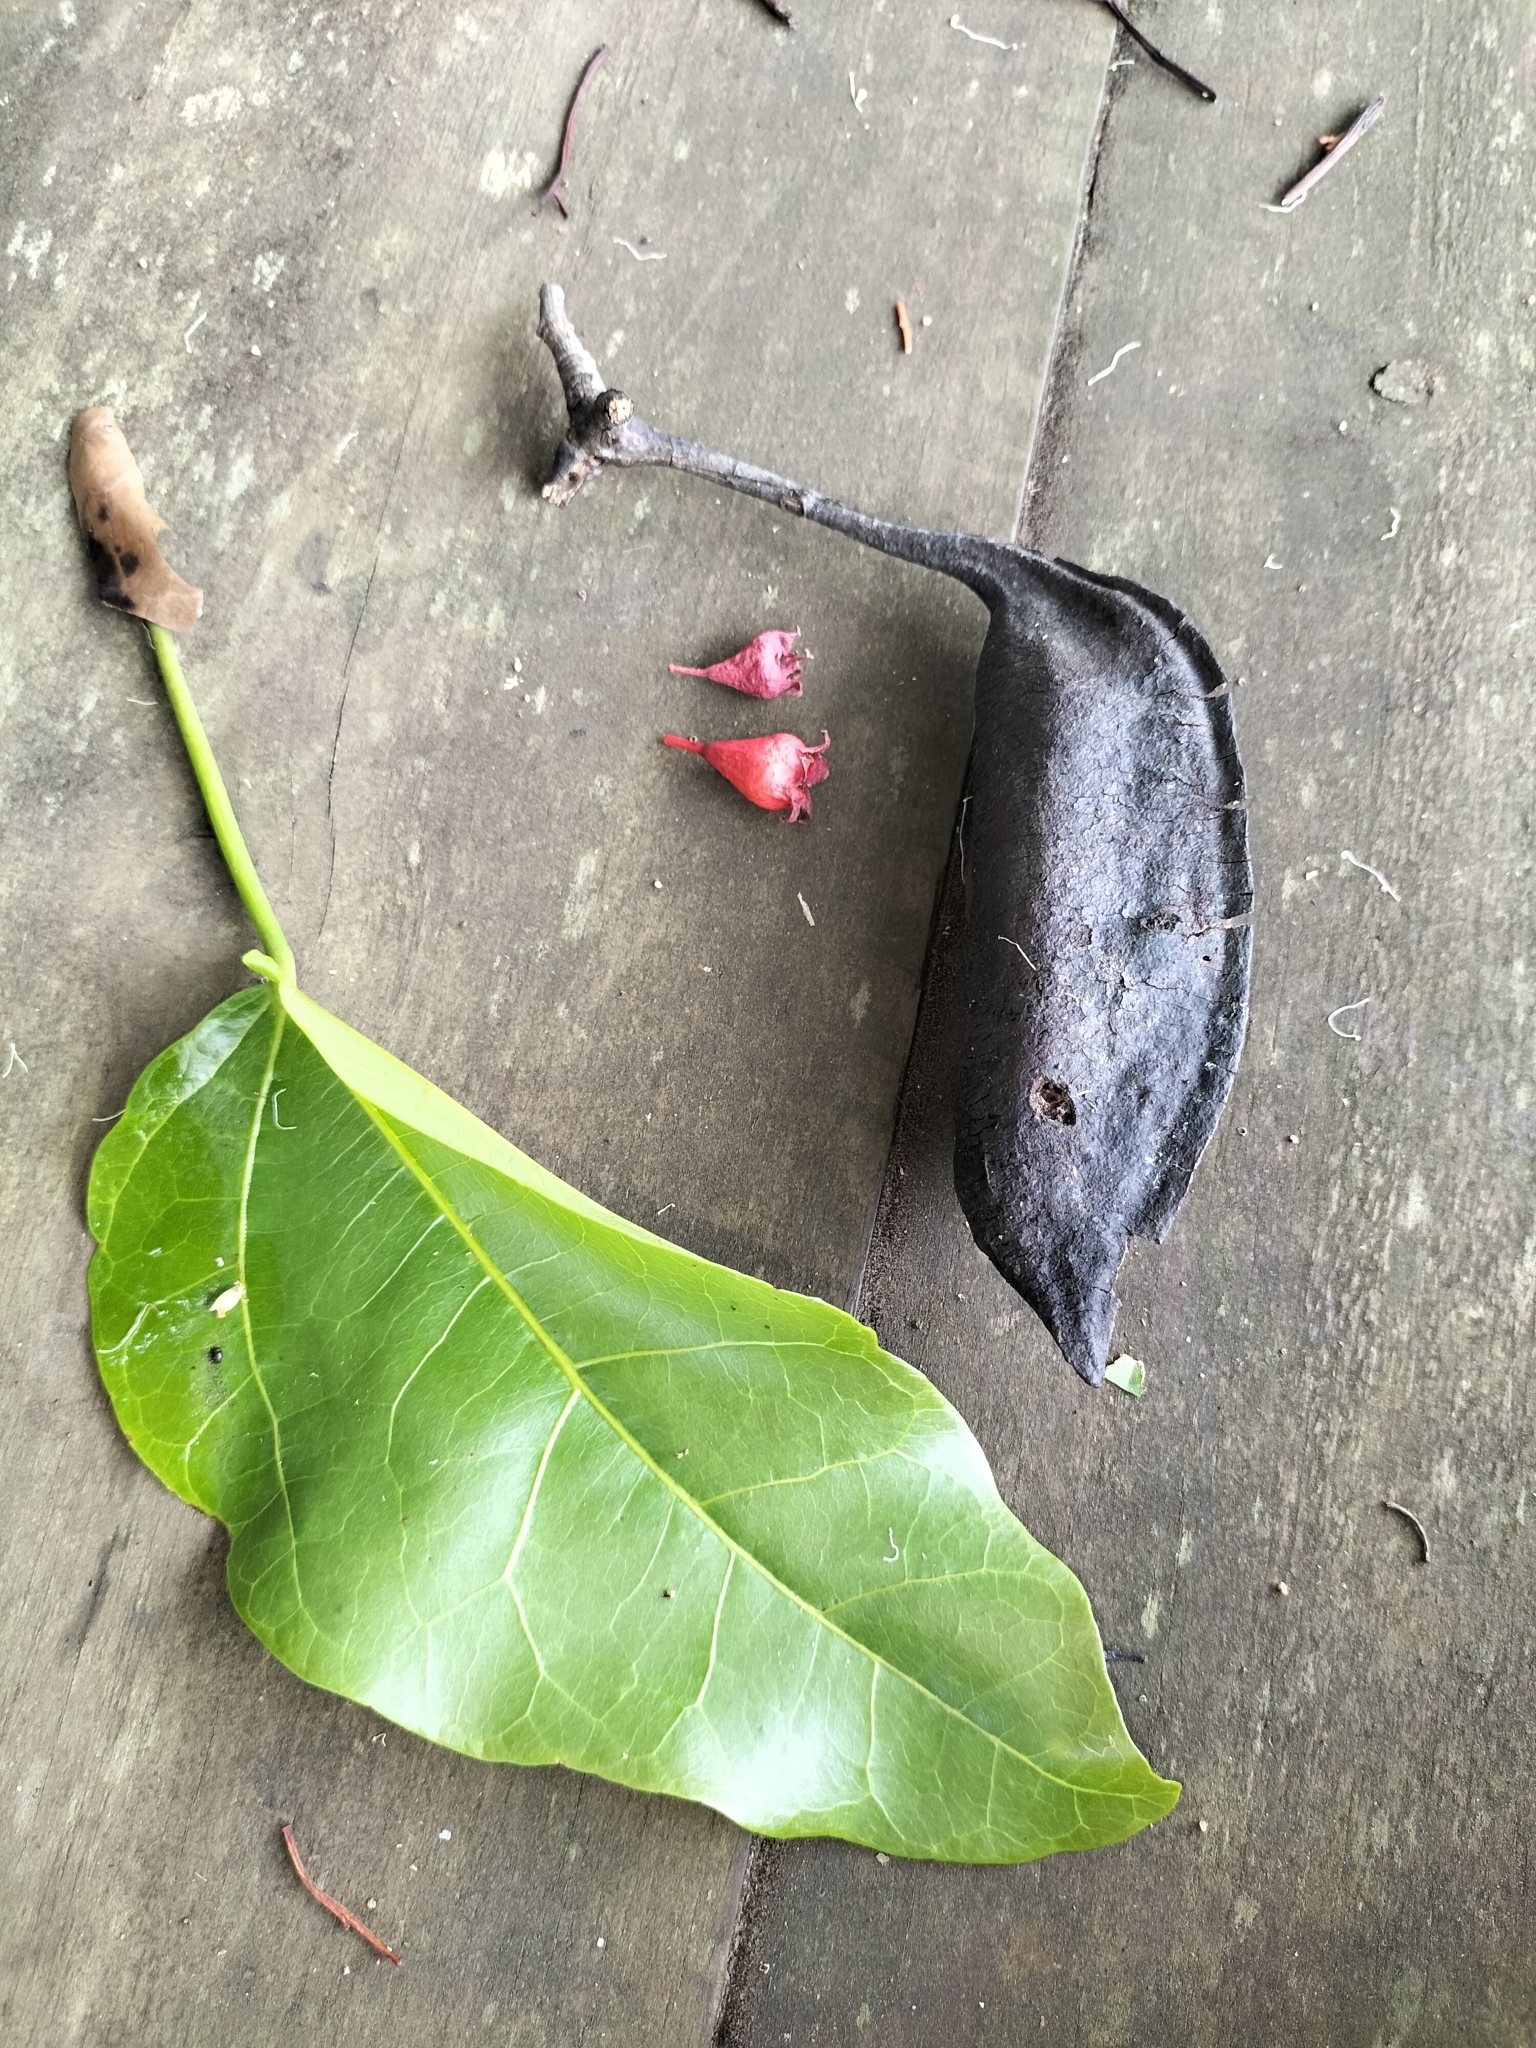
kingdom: Plantae
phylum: Tracheophyta
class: Magnoliopsida
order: Malvales
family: Malvaceae
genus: Brachychiton
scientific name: Brachychiton acerifolius
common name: Illawarra flame tree
